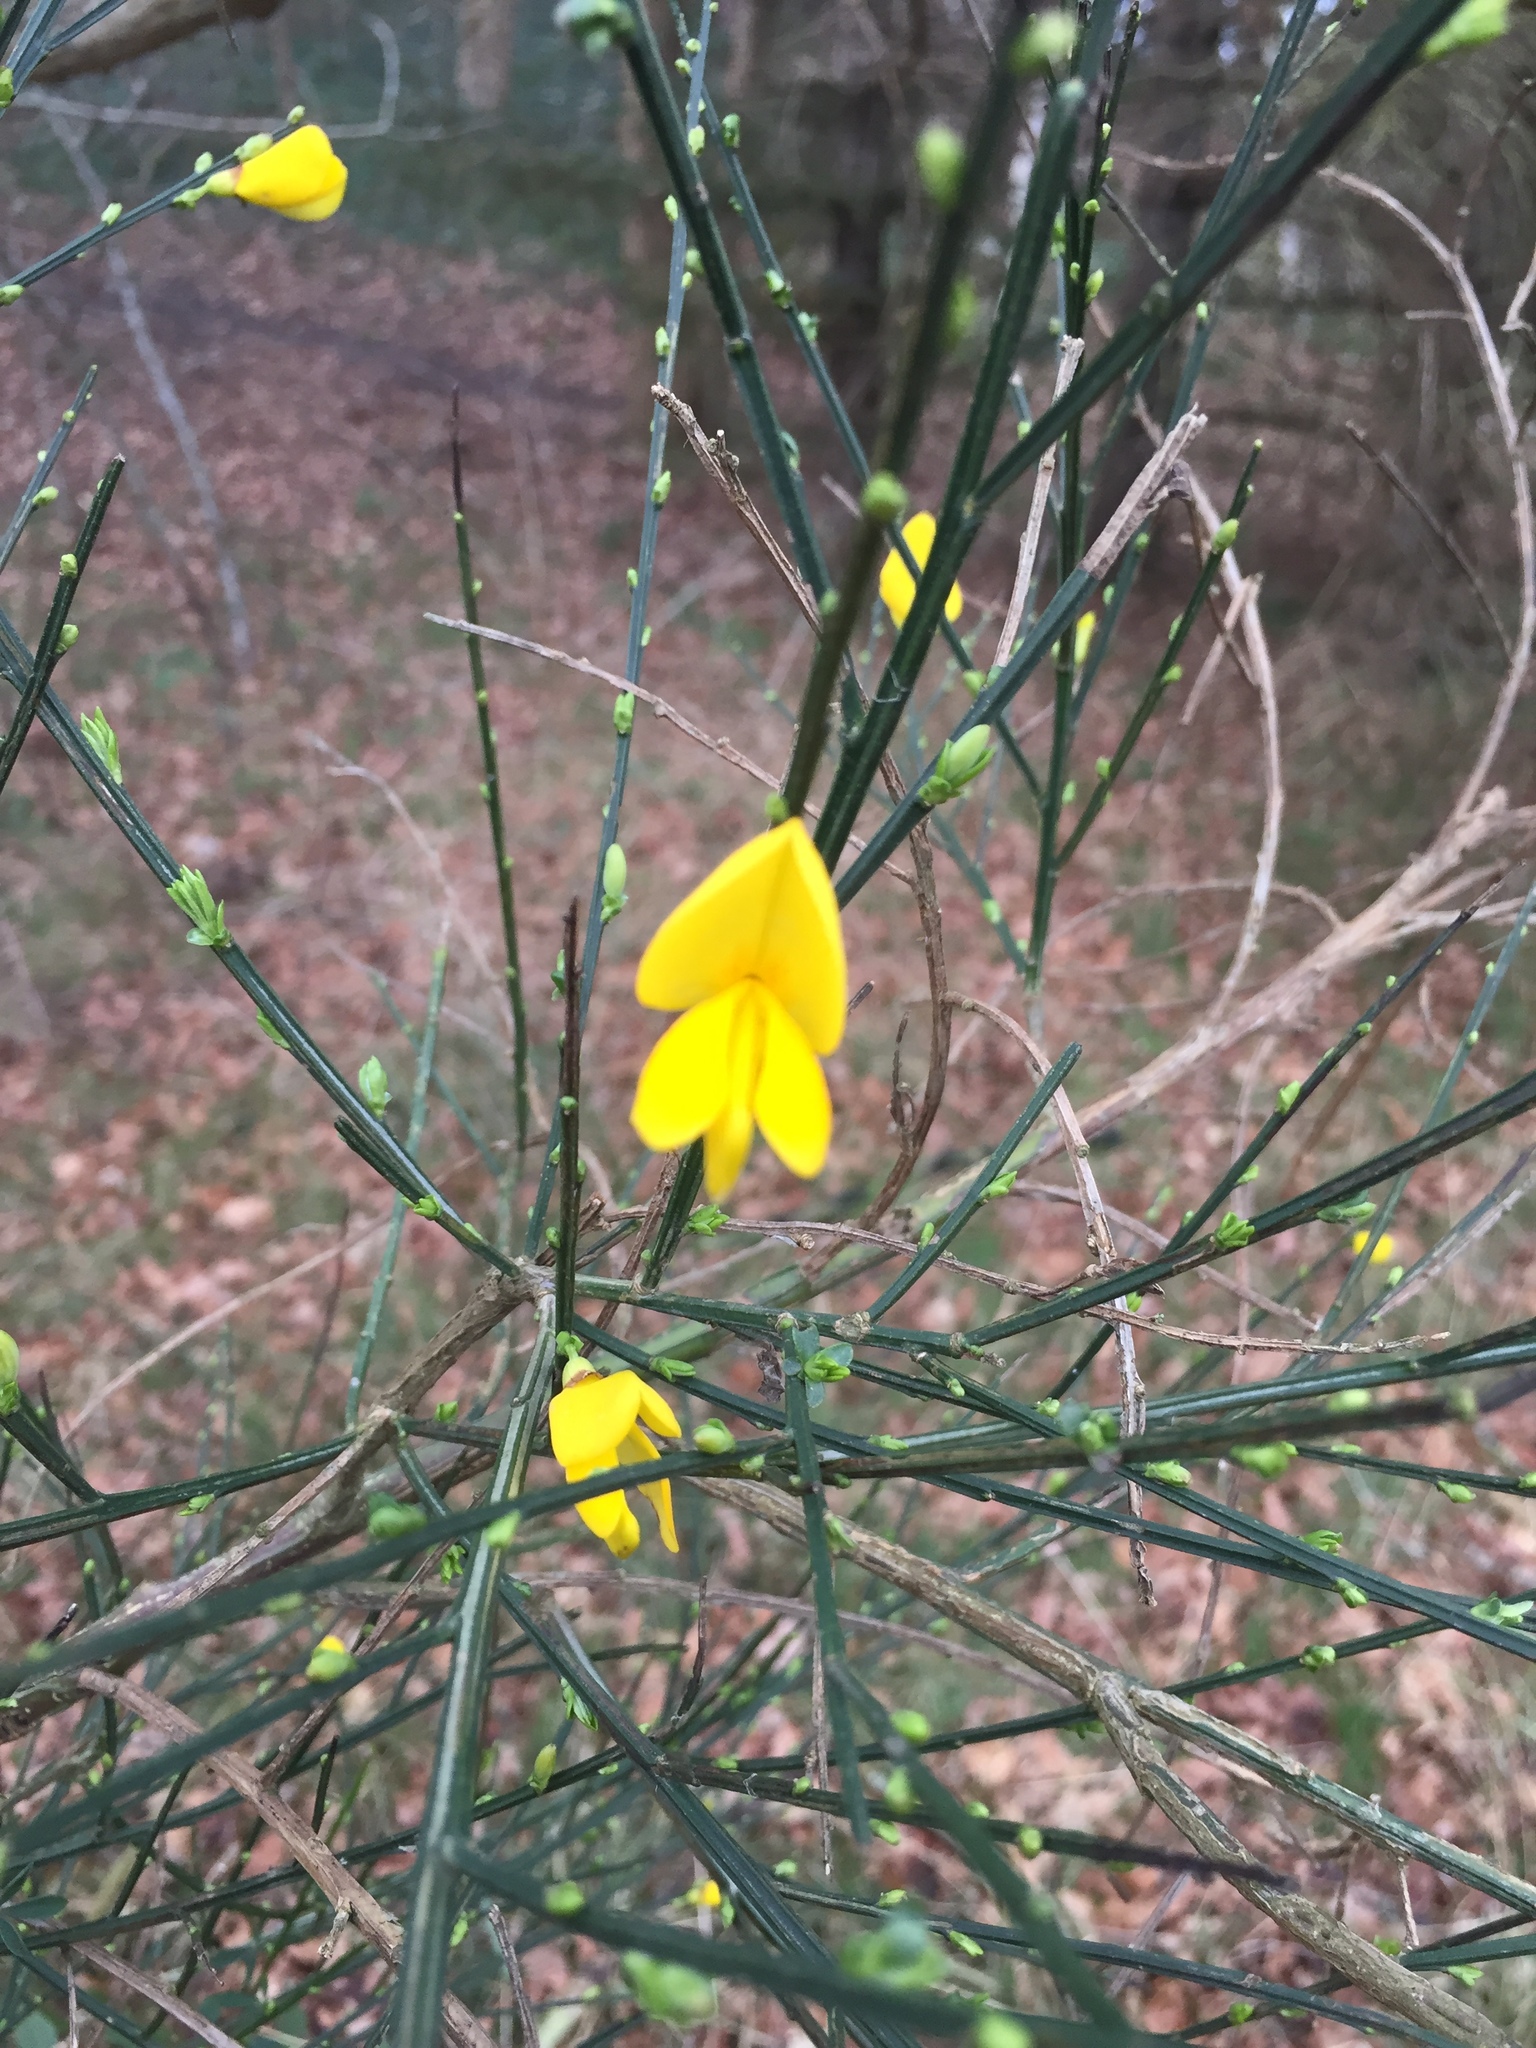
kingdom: Plantae
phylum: Tracheophyta
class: Magnoliopsida
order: Fabales
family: Fabaceae
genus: Cytisus
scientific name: Cytisus scoparius
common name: Scotch broom
